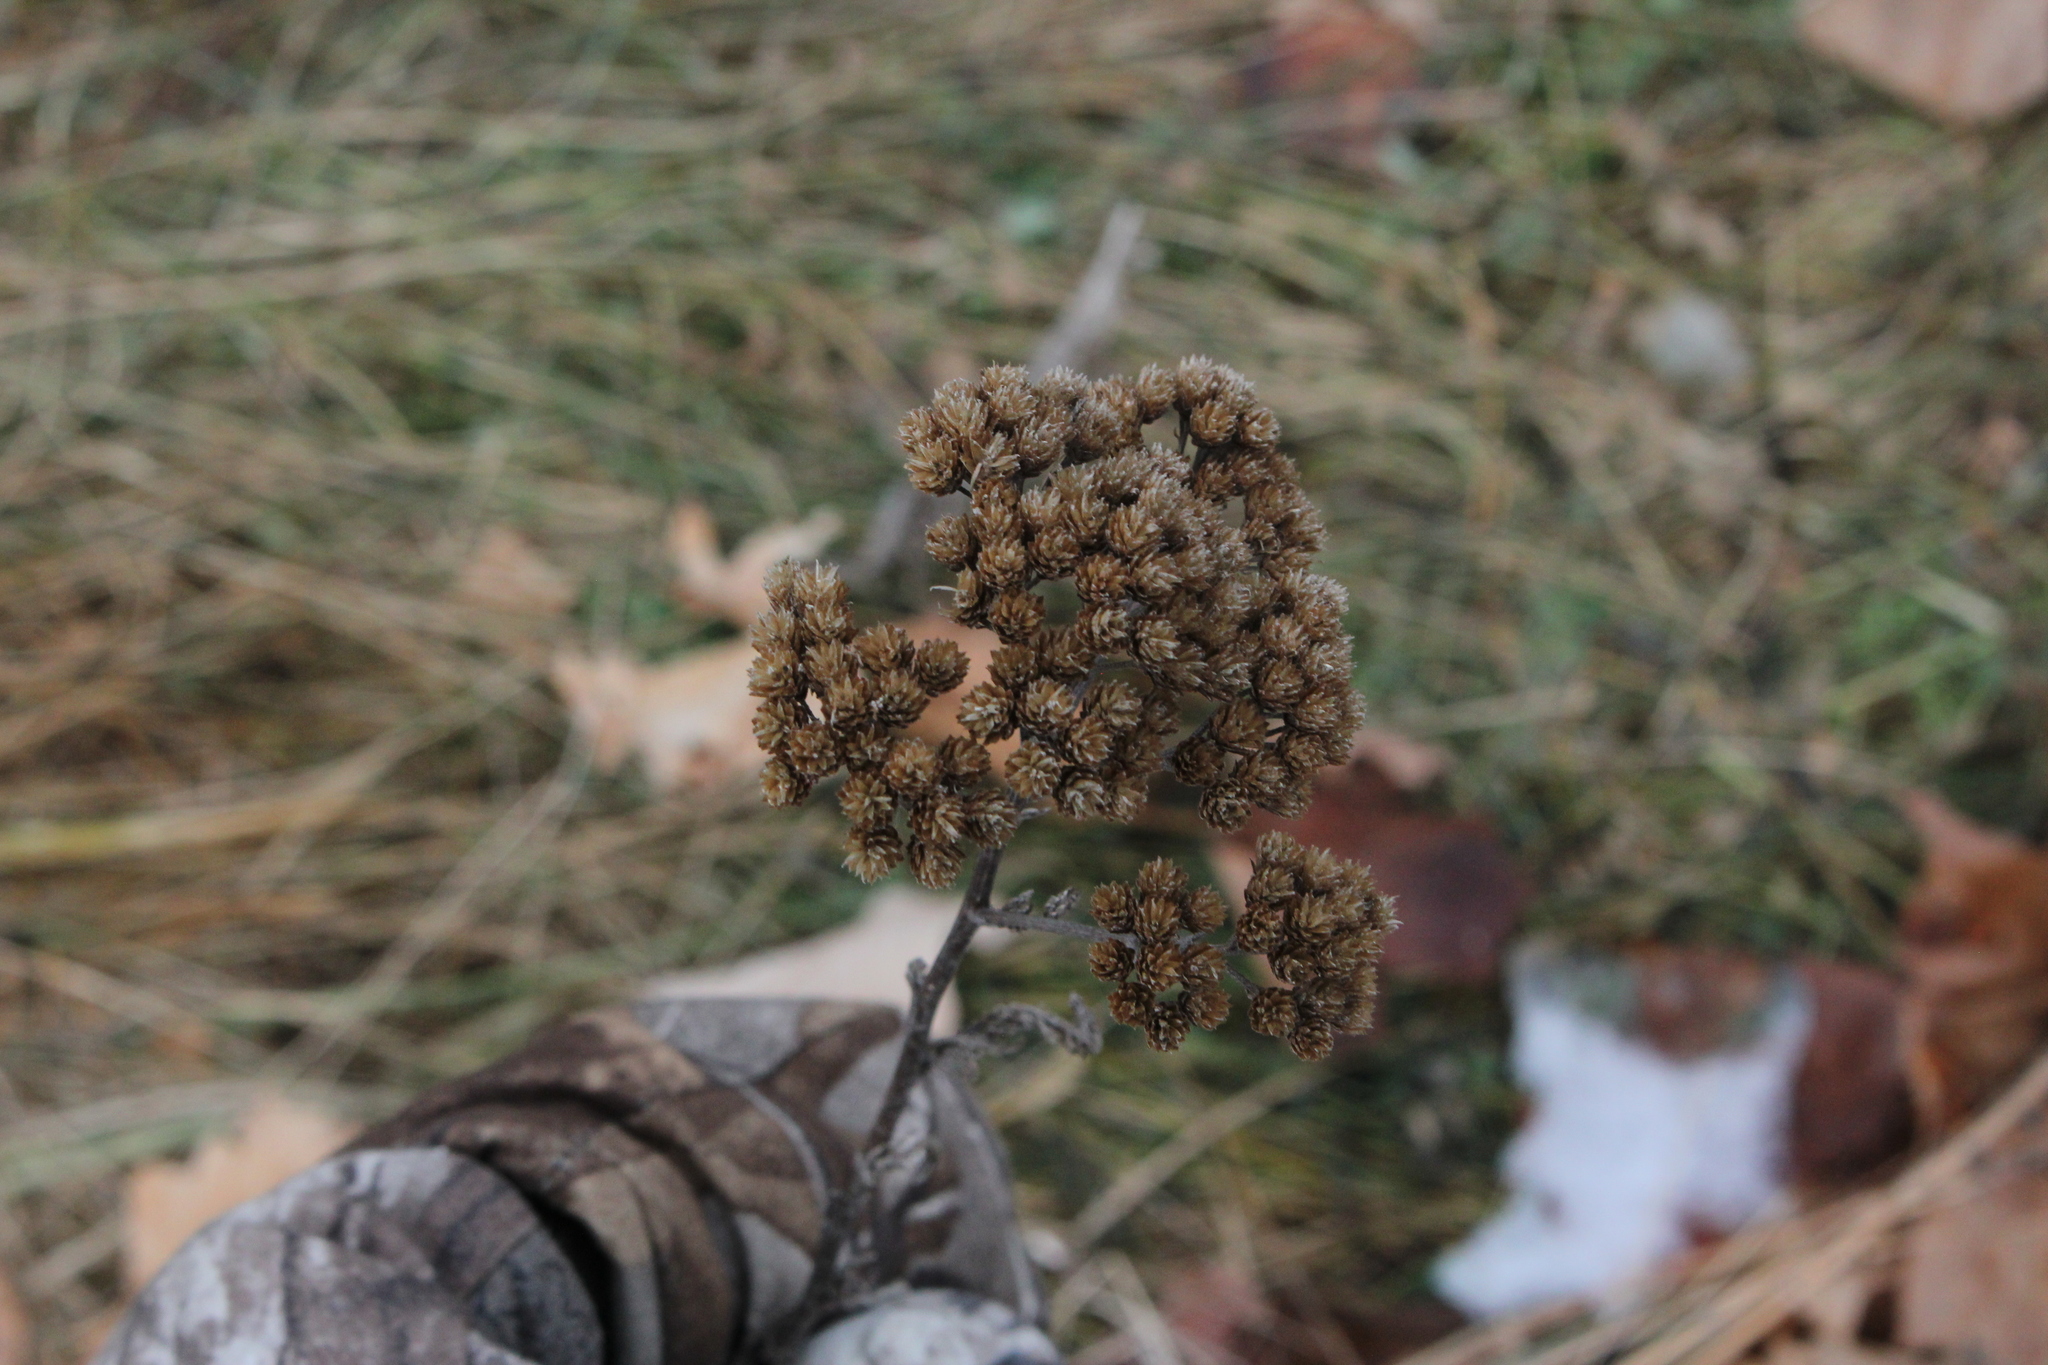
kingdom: Plantae
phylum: Tracheophyta
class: Magnoliopsida
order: Asterales
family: Asteraceae
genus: Achillea
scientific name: Achillea millefolium
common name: Yarrow
